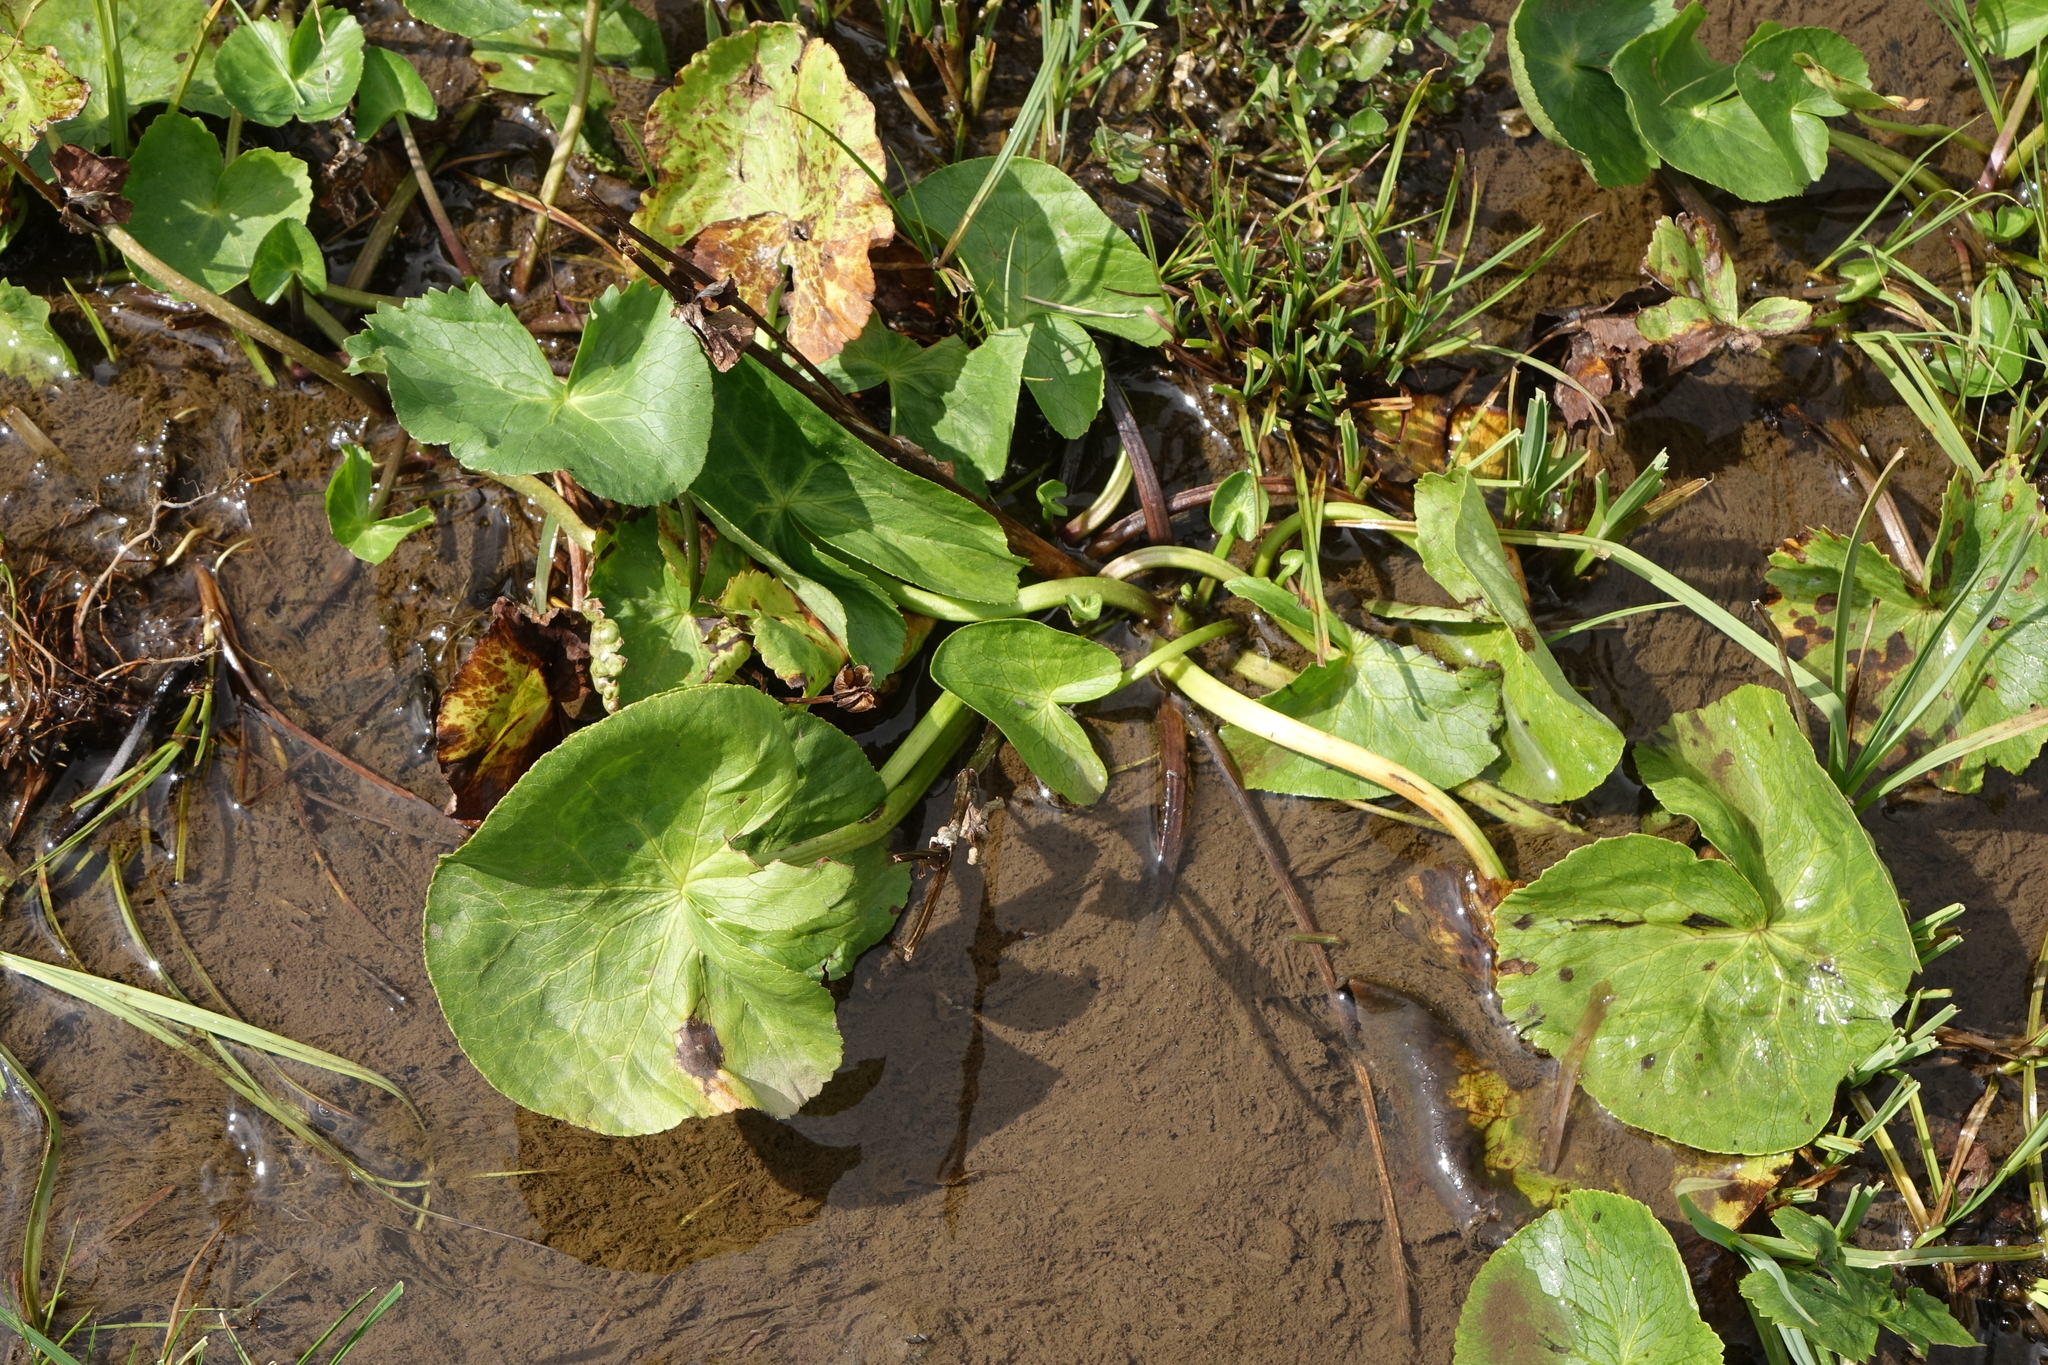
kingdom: Plantae
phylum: Tracheophyta
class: Magnoliopsida
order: Ranunculales
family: Ranunculaceae
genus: Caltha
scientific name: Caltha palustris
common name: Marsh marigold
